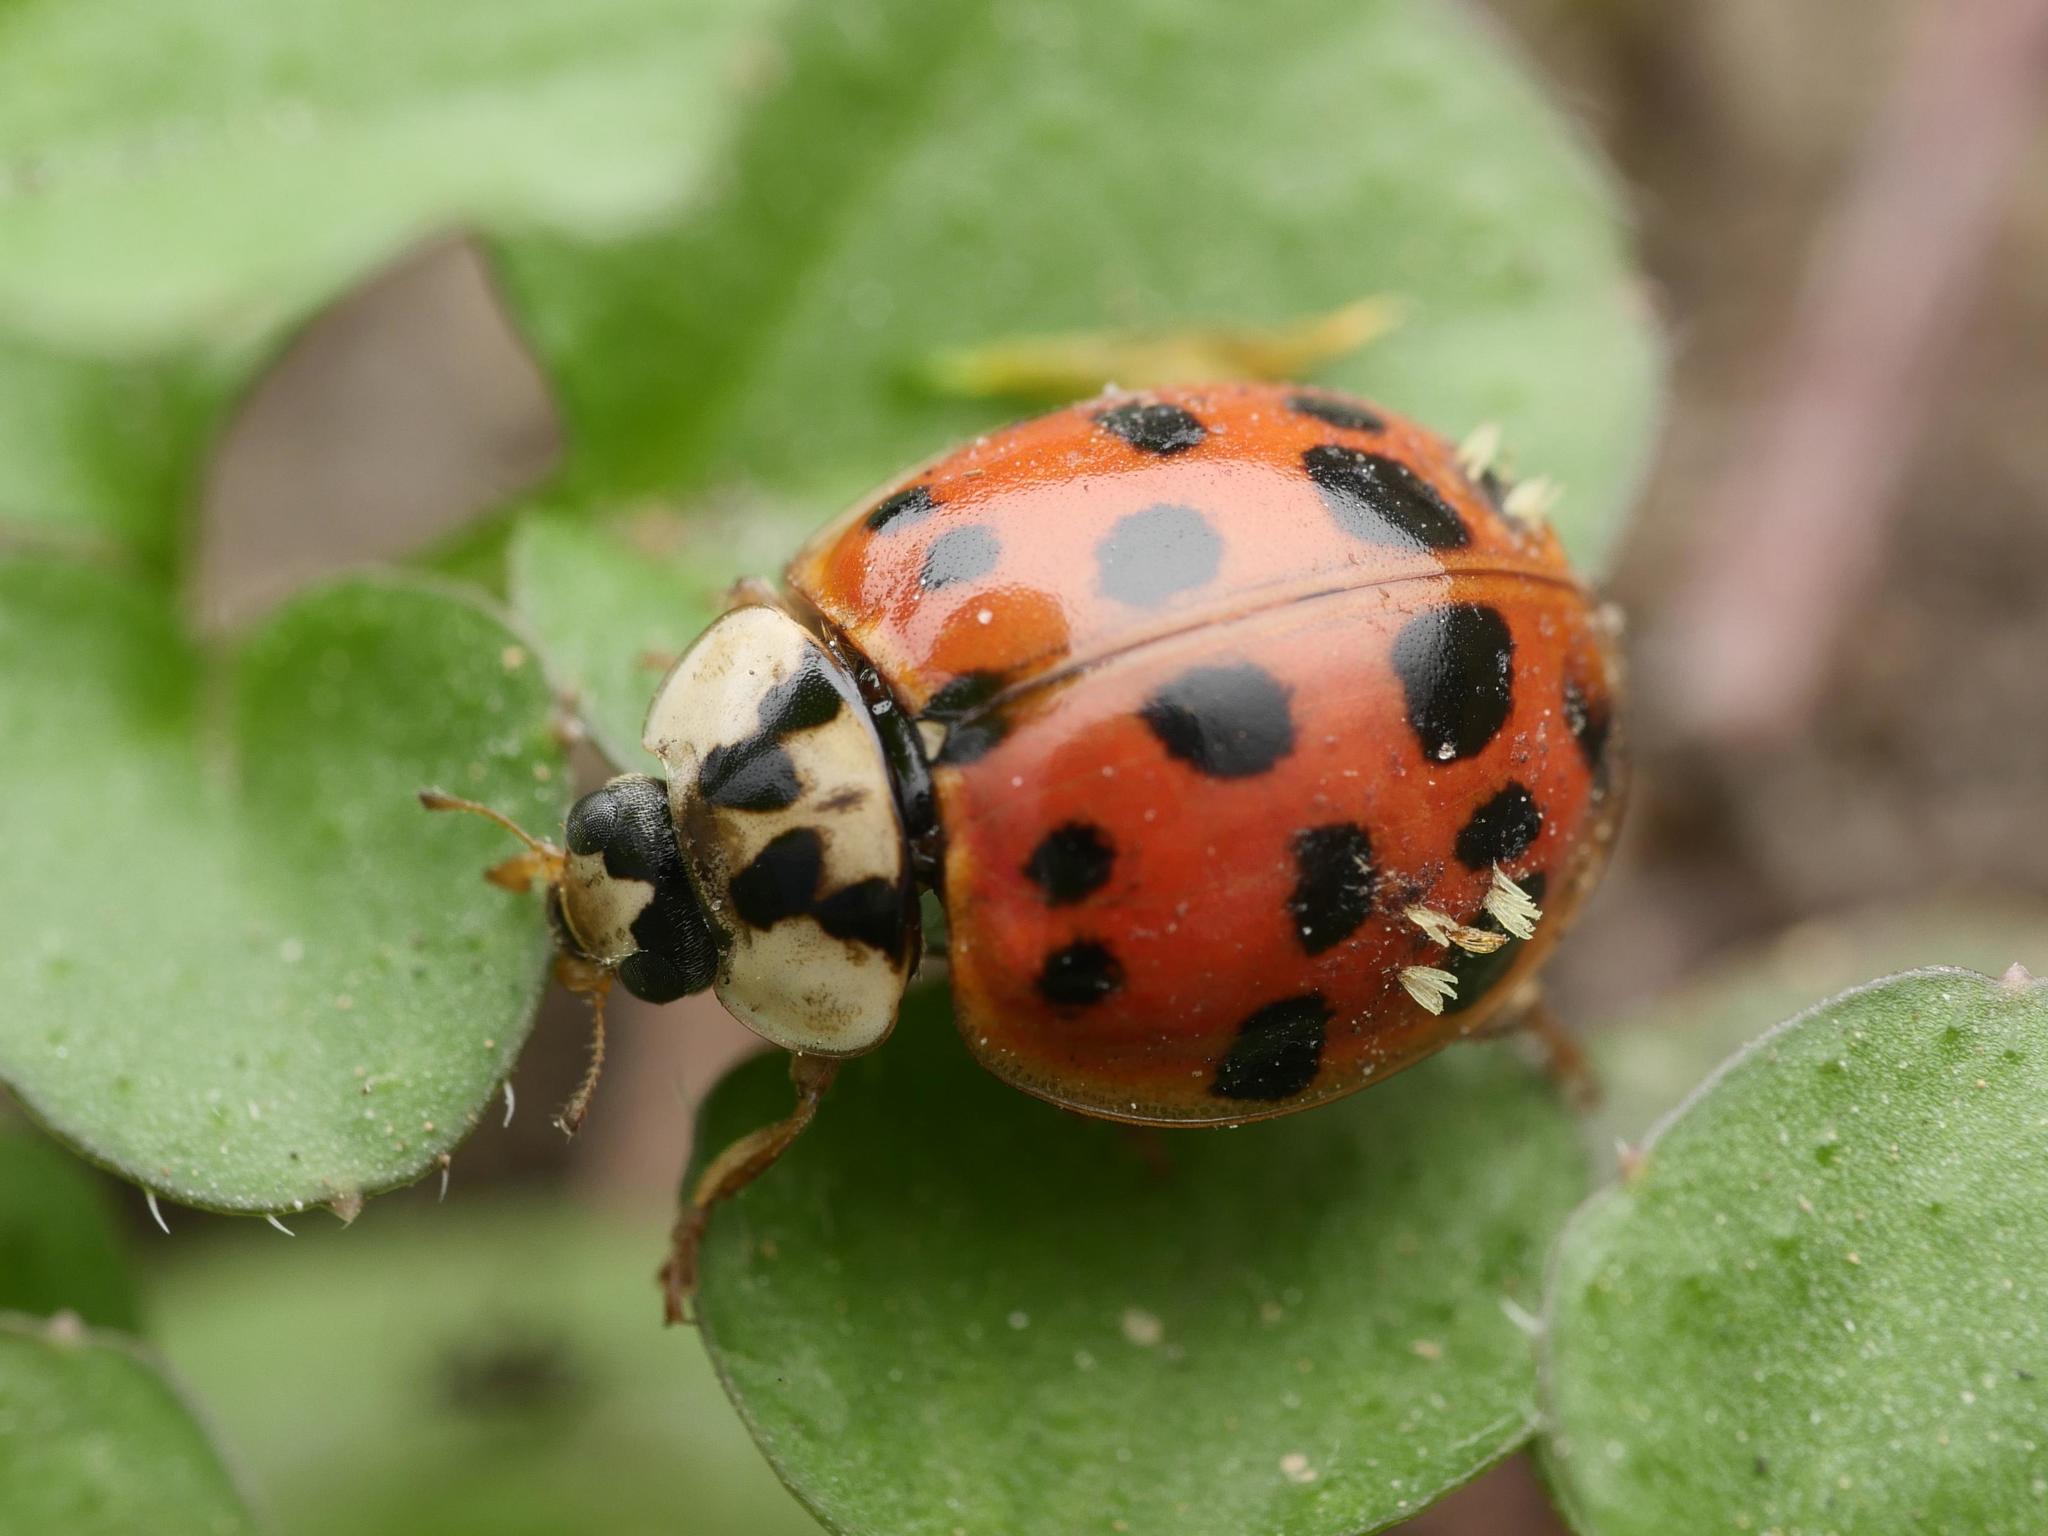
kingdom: Animalia
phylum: Arthropoda
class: Insecta
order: Coleoptera
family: Coccinellidae
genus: Harmonia
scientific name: Harmonia axyridis
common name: Harlequin ladybird
